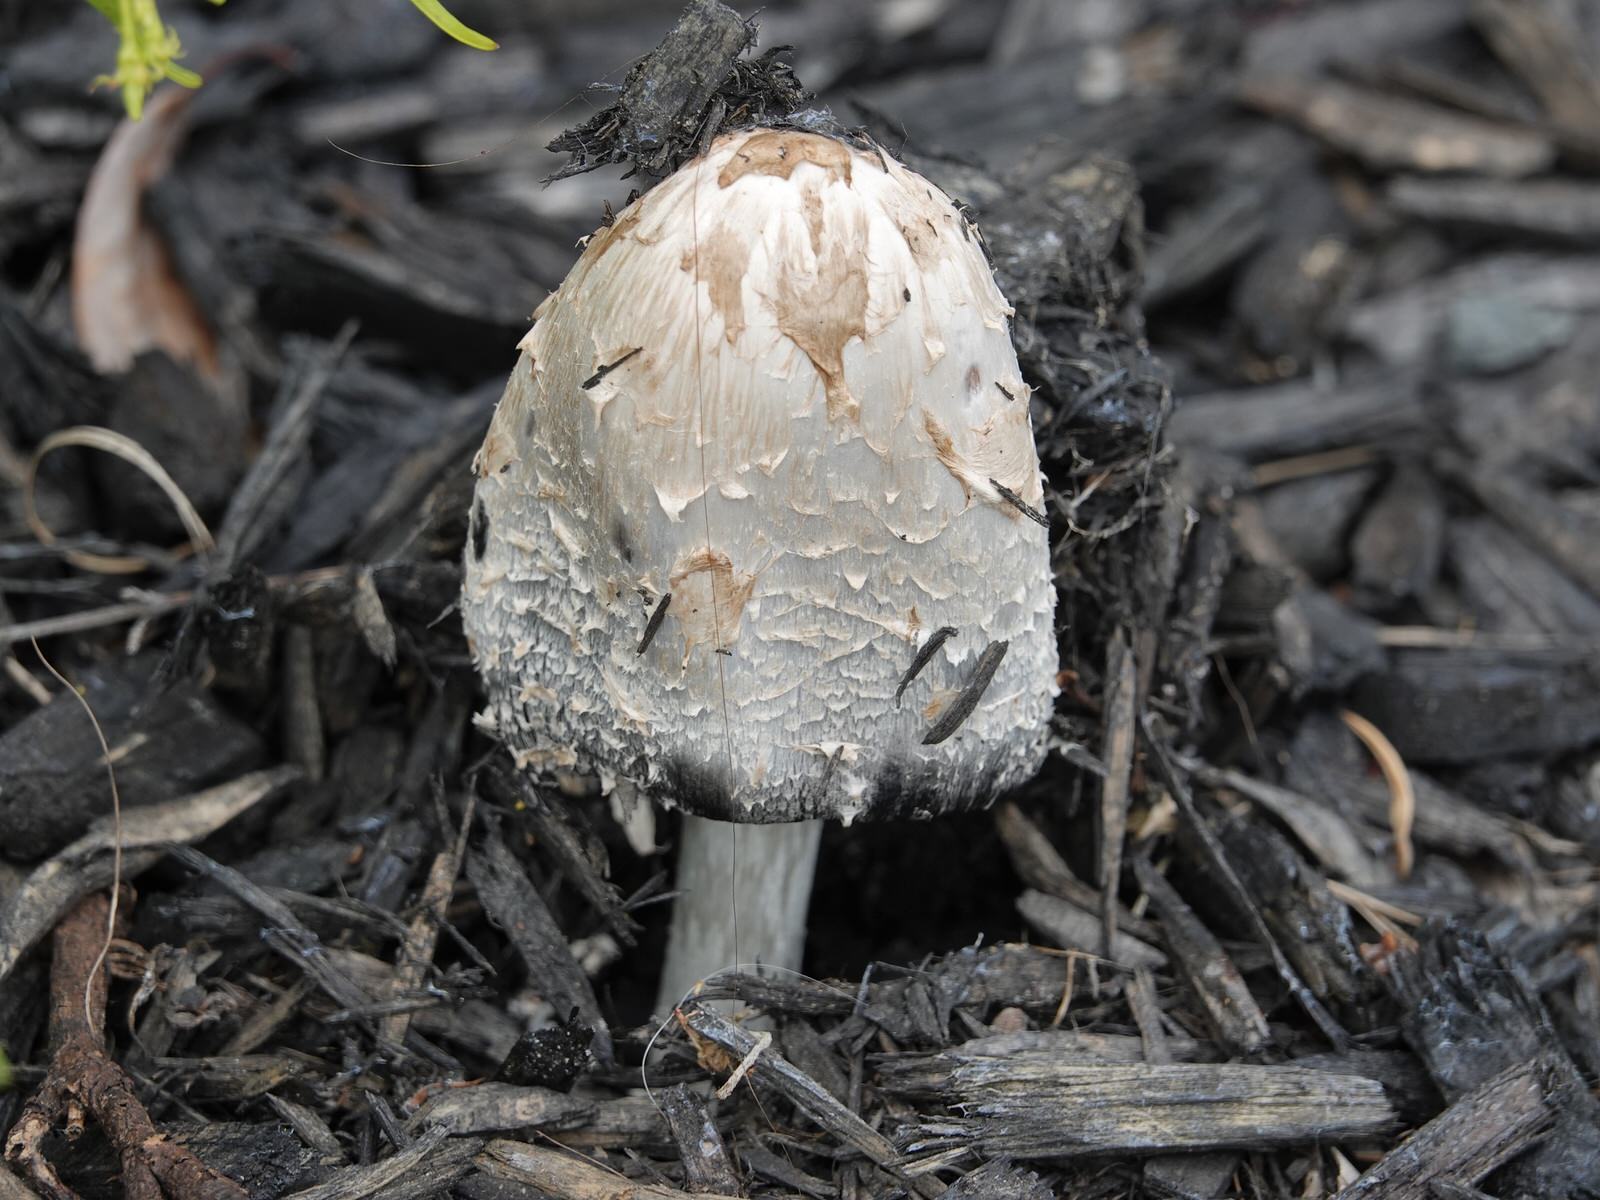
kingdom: Fungi
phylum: Basidiomycota
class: Agaricomycetes
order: Agaricales
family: Agaricaceae
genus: Coprinus
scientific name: Coprinus comatus
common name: Lawyer's wig
